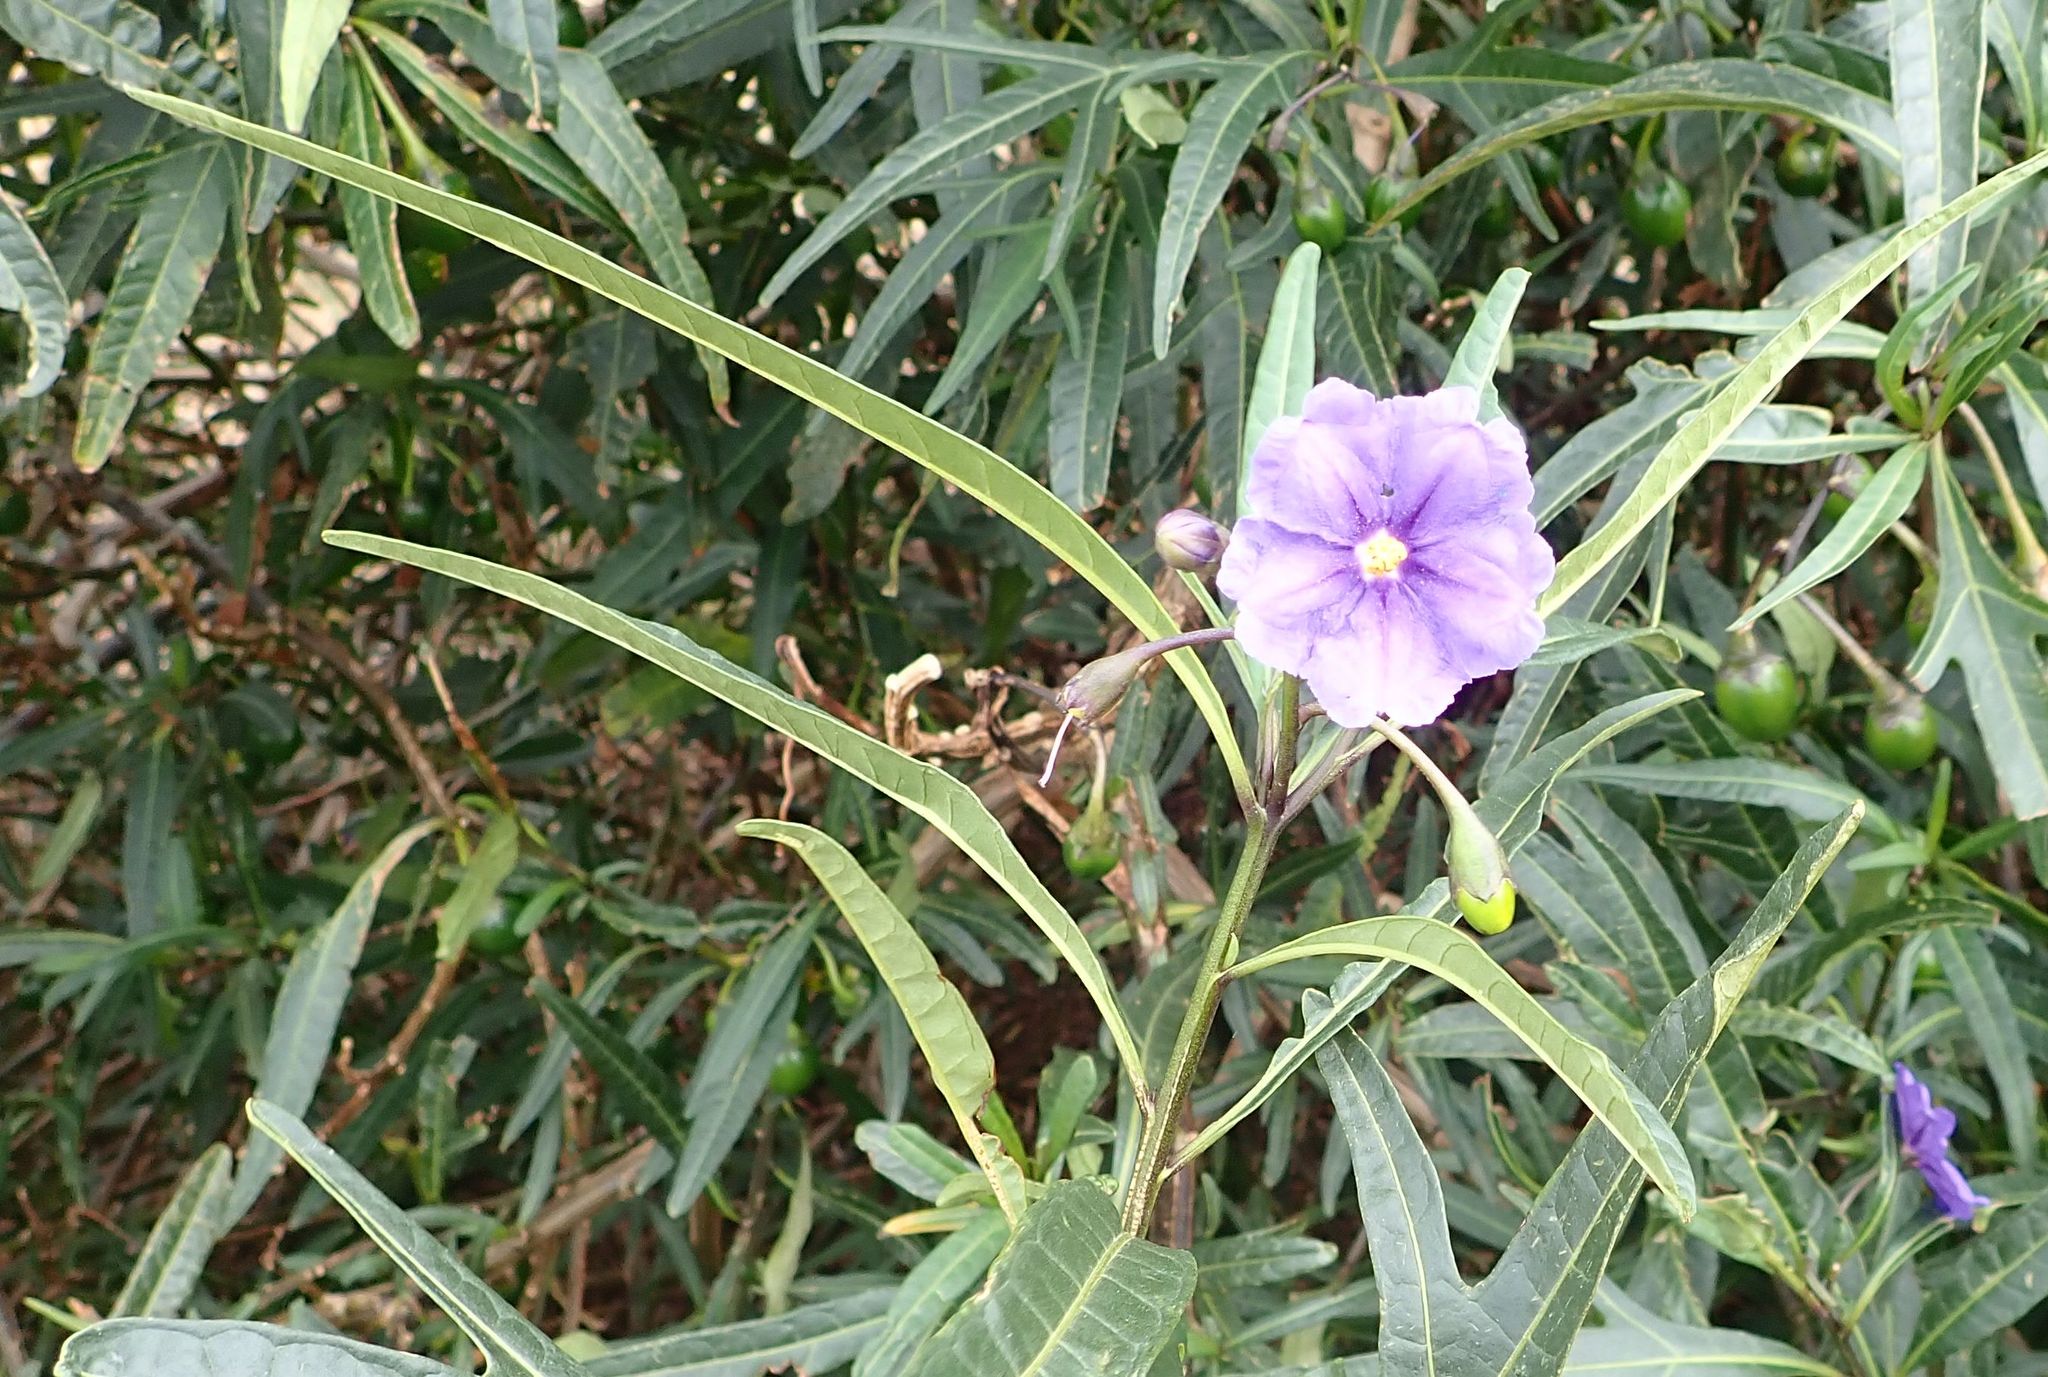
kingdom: Plantae
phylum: Tracheophyta
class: Magnoliopsida
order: Solanales
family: Solanaceae
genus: Solanum
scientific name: Solanum laciniatum
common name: Kangaroo-apple
